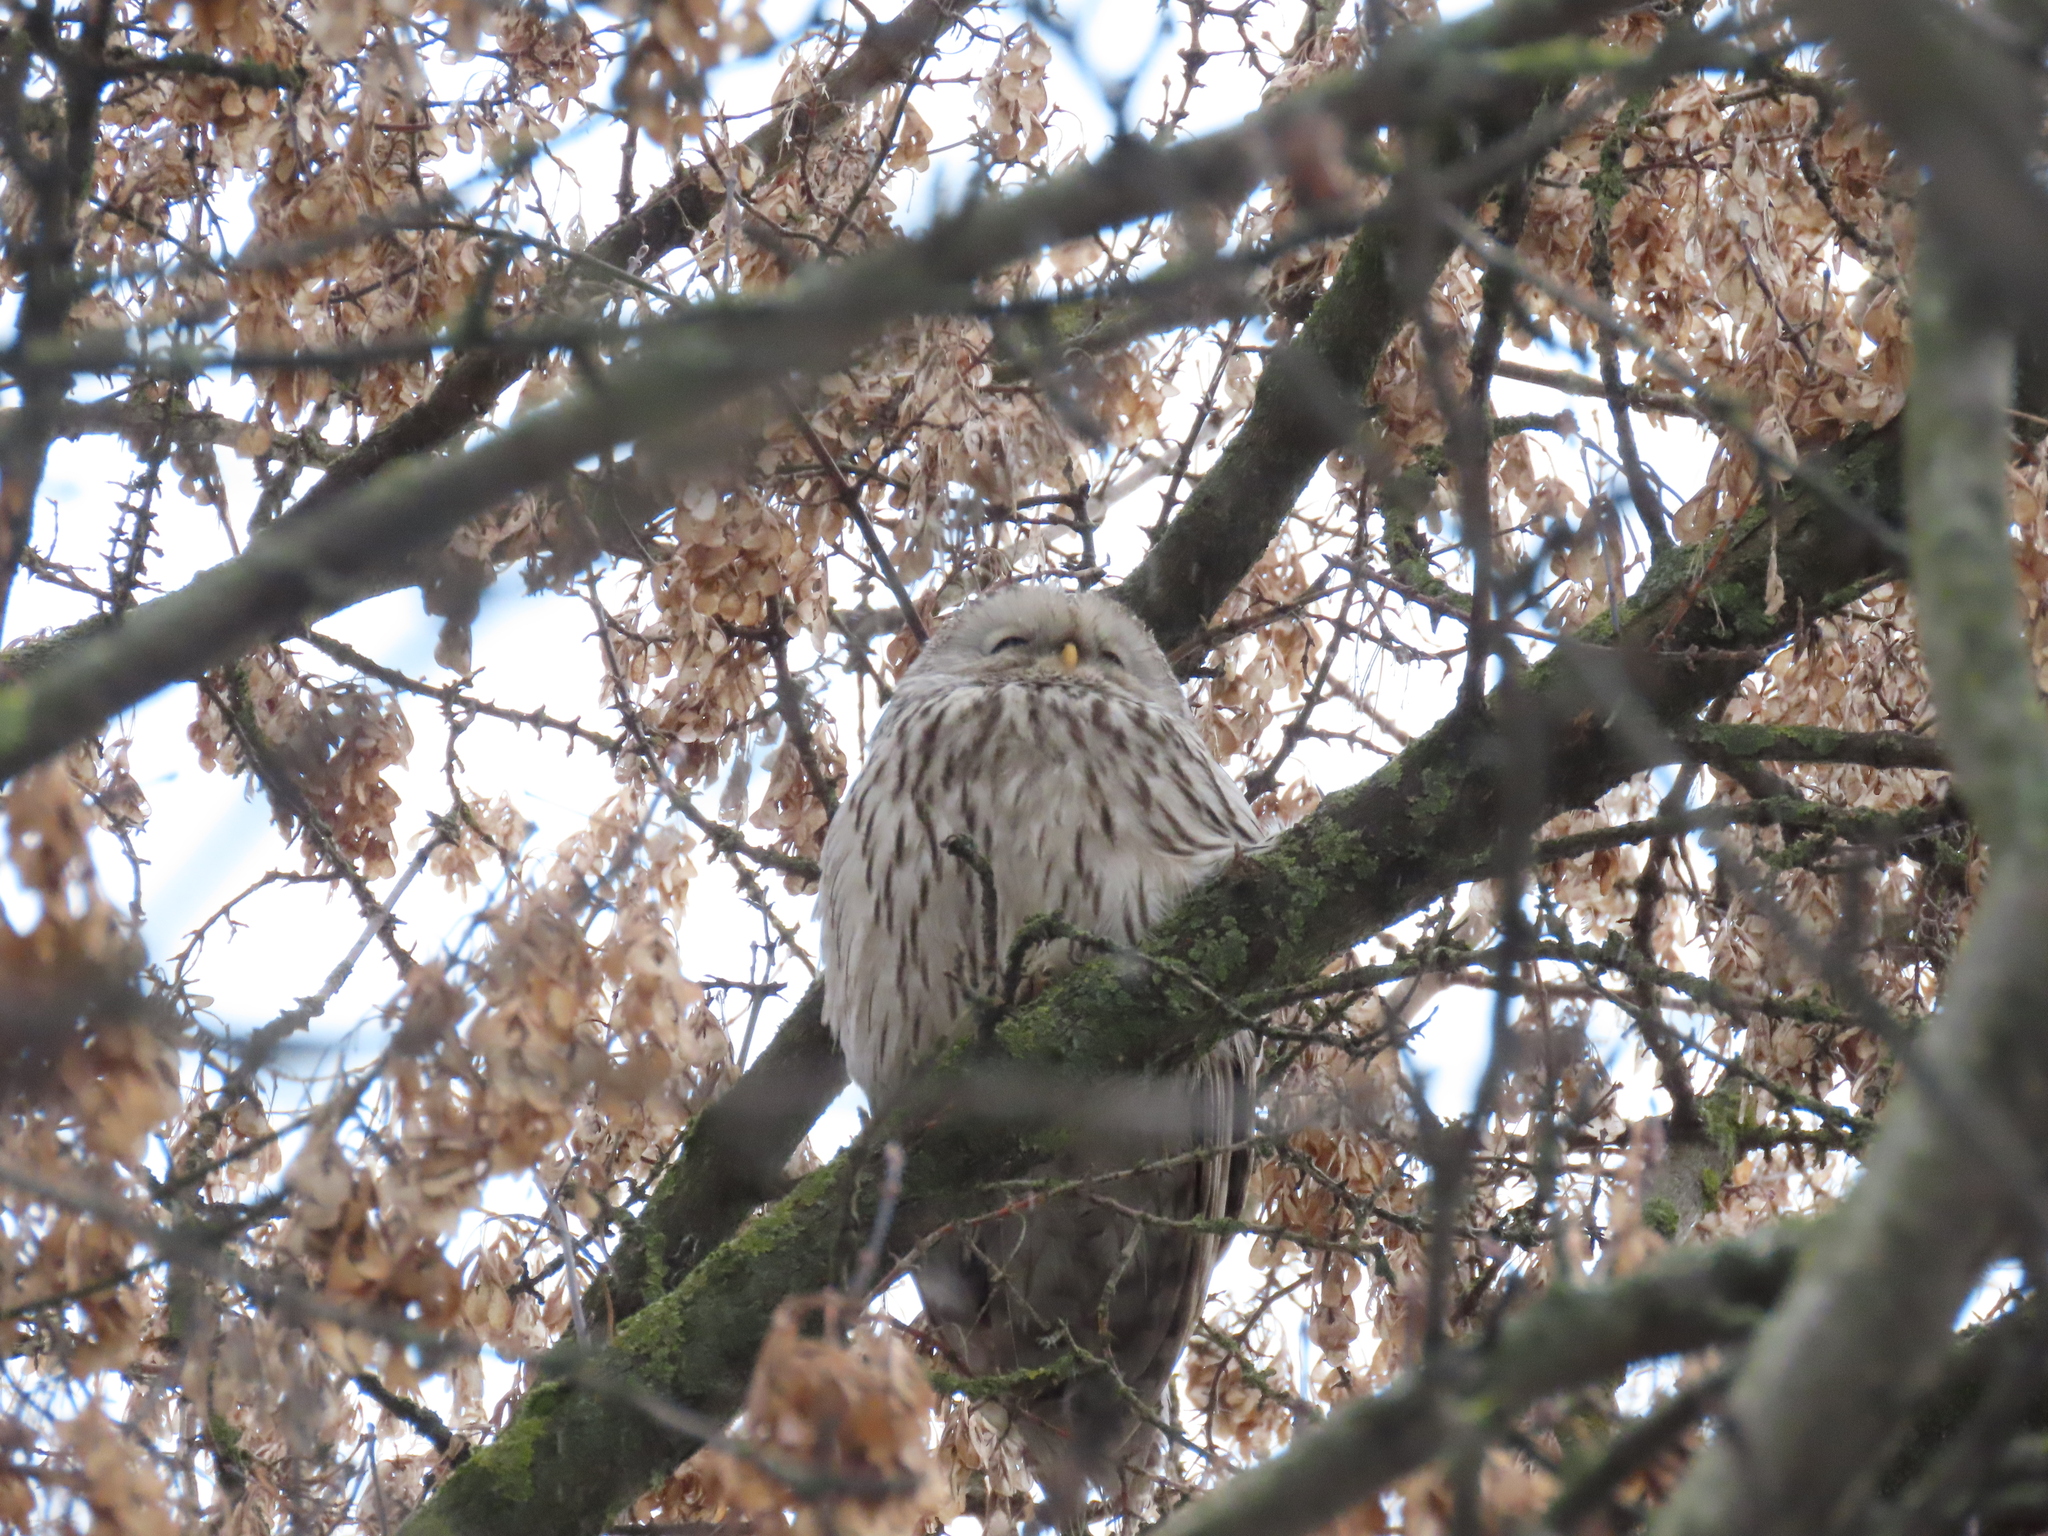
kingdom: Animalia
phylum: Chordata
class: Aves
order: Strigiformes
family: Strigidae
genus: Strix
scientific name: Strix uralensis
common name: Ural owl
